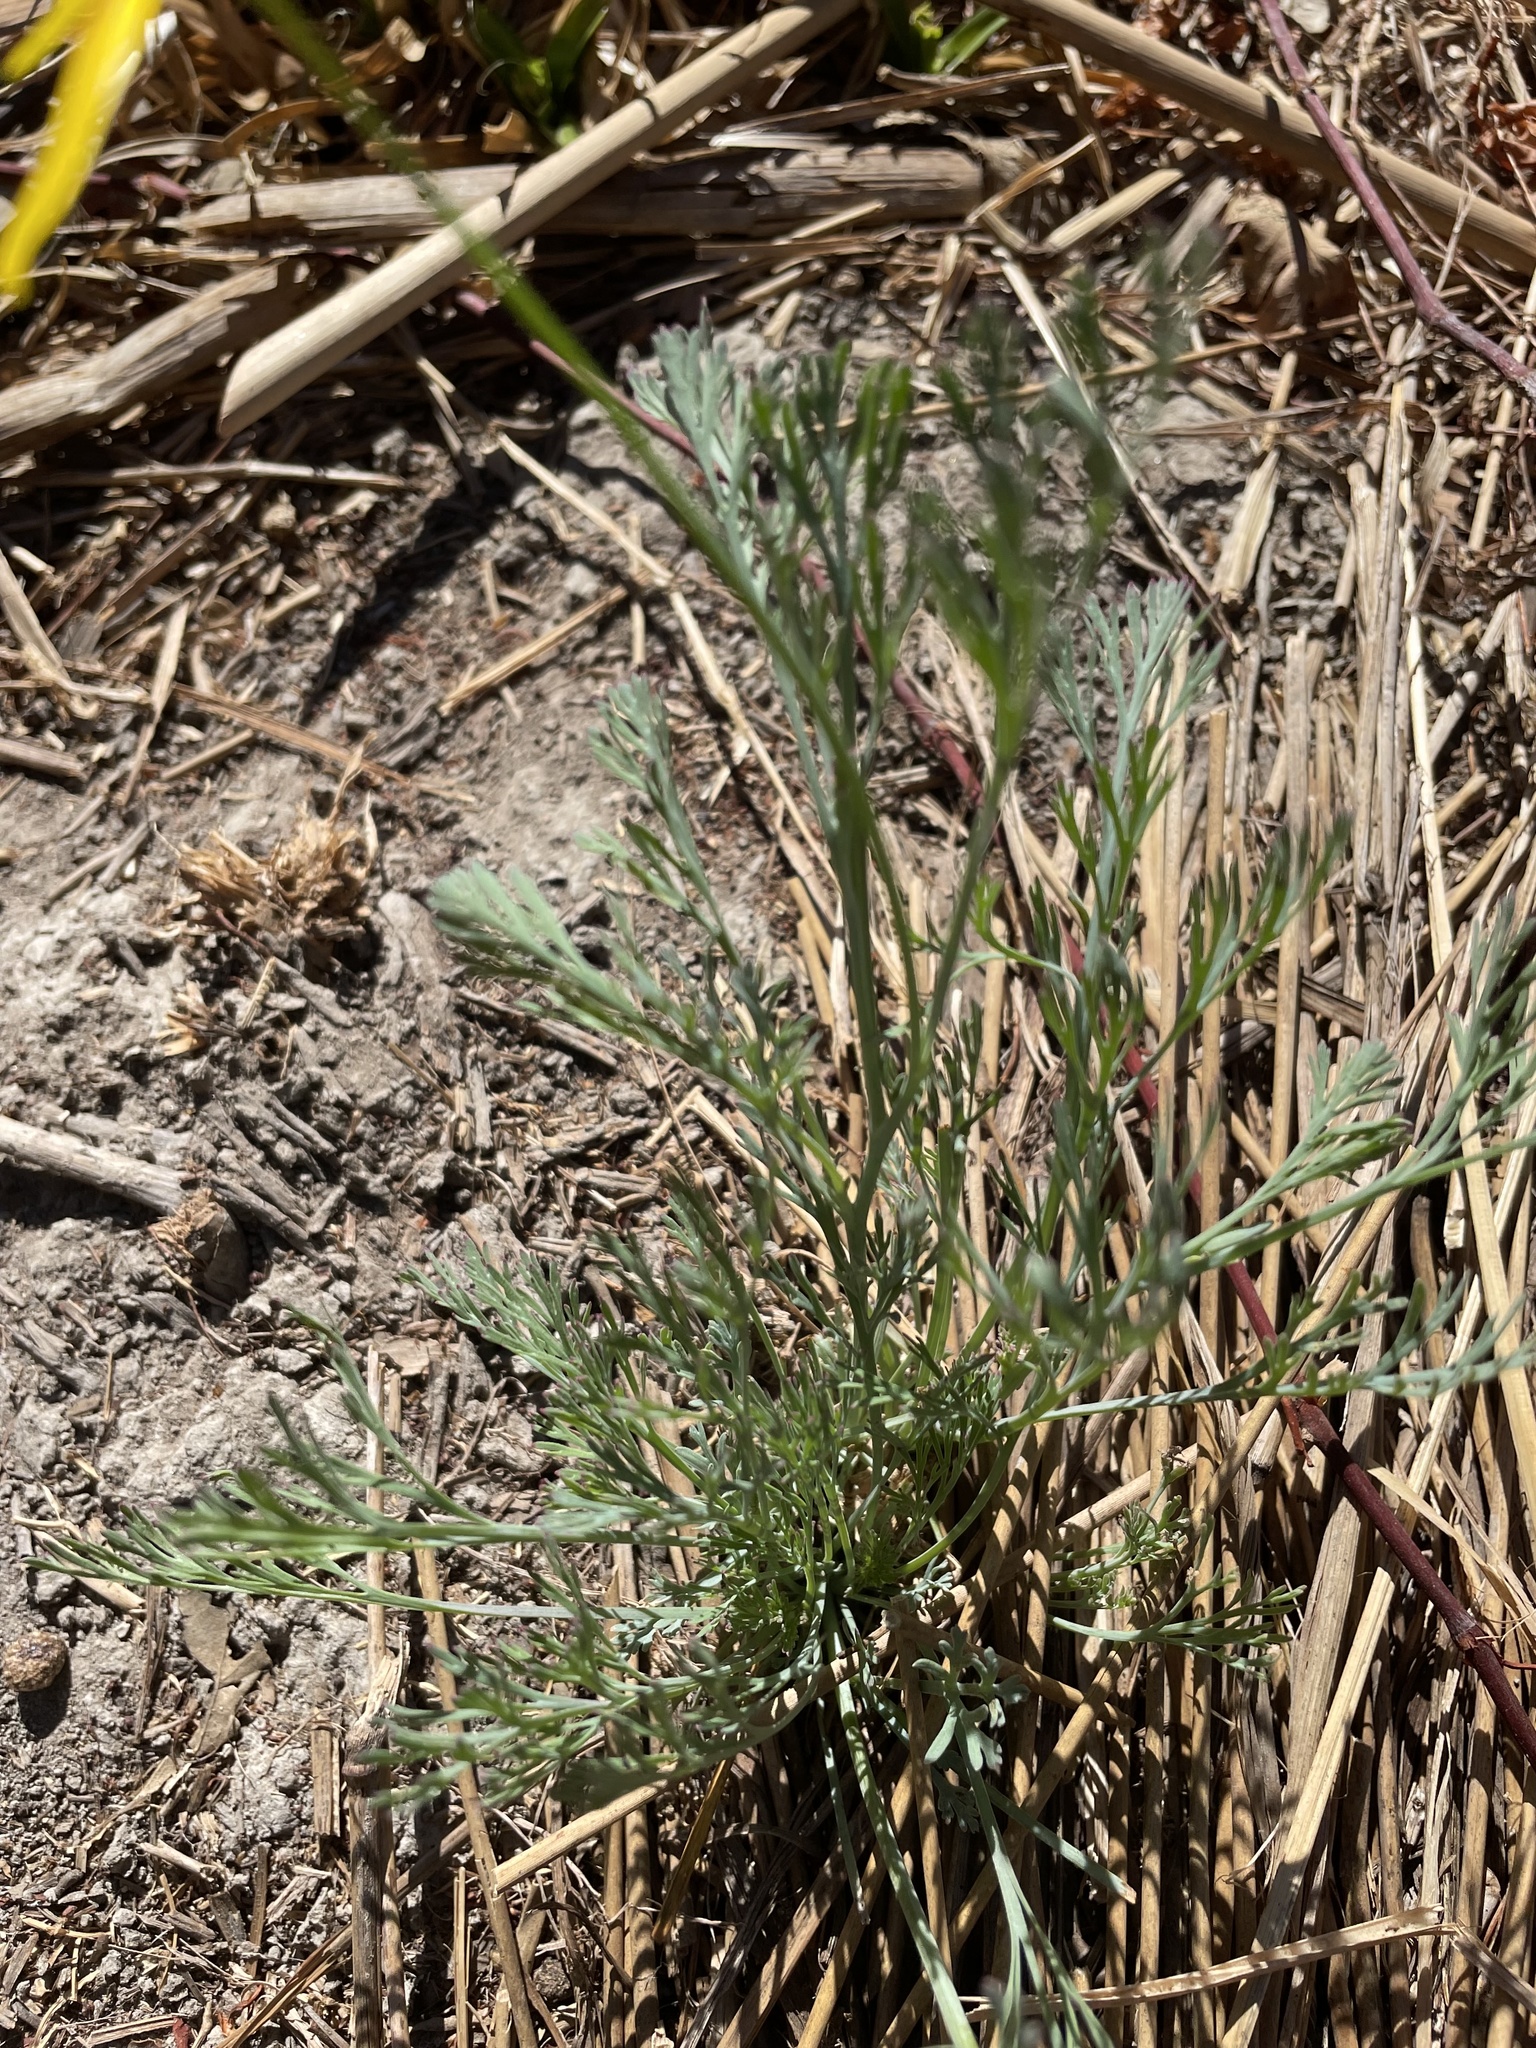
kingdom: Plantae
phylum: Tracheophyta
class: Magnoliopsida
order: Ranunculales
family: Papaveraceae
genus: Eschscholzia
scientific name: Eschscholzia caespitosa
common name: Tufted california-poppy
